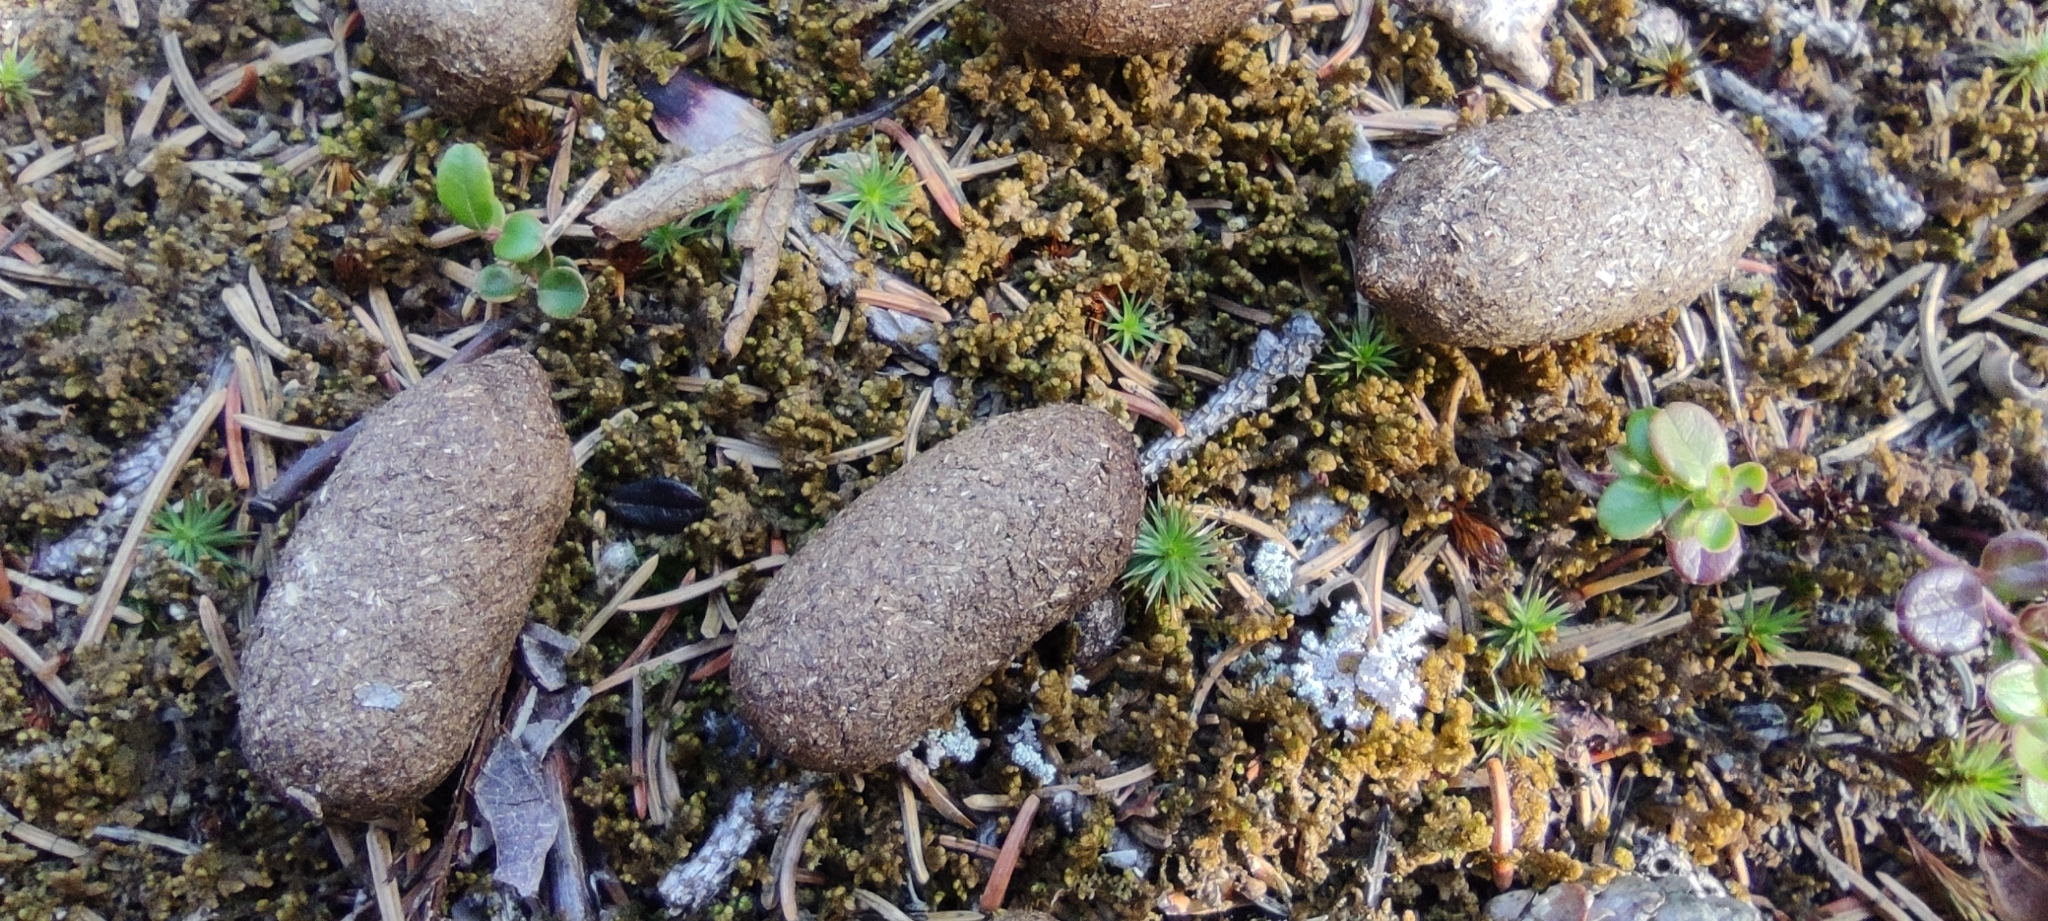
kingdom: Animalia
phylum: Chordata
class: Mammalia
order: Artiodactyla
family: Cervidae
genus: Alces
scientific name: Alces alces
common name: Moose
